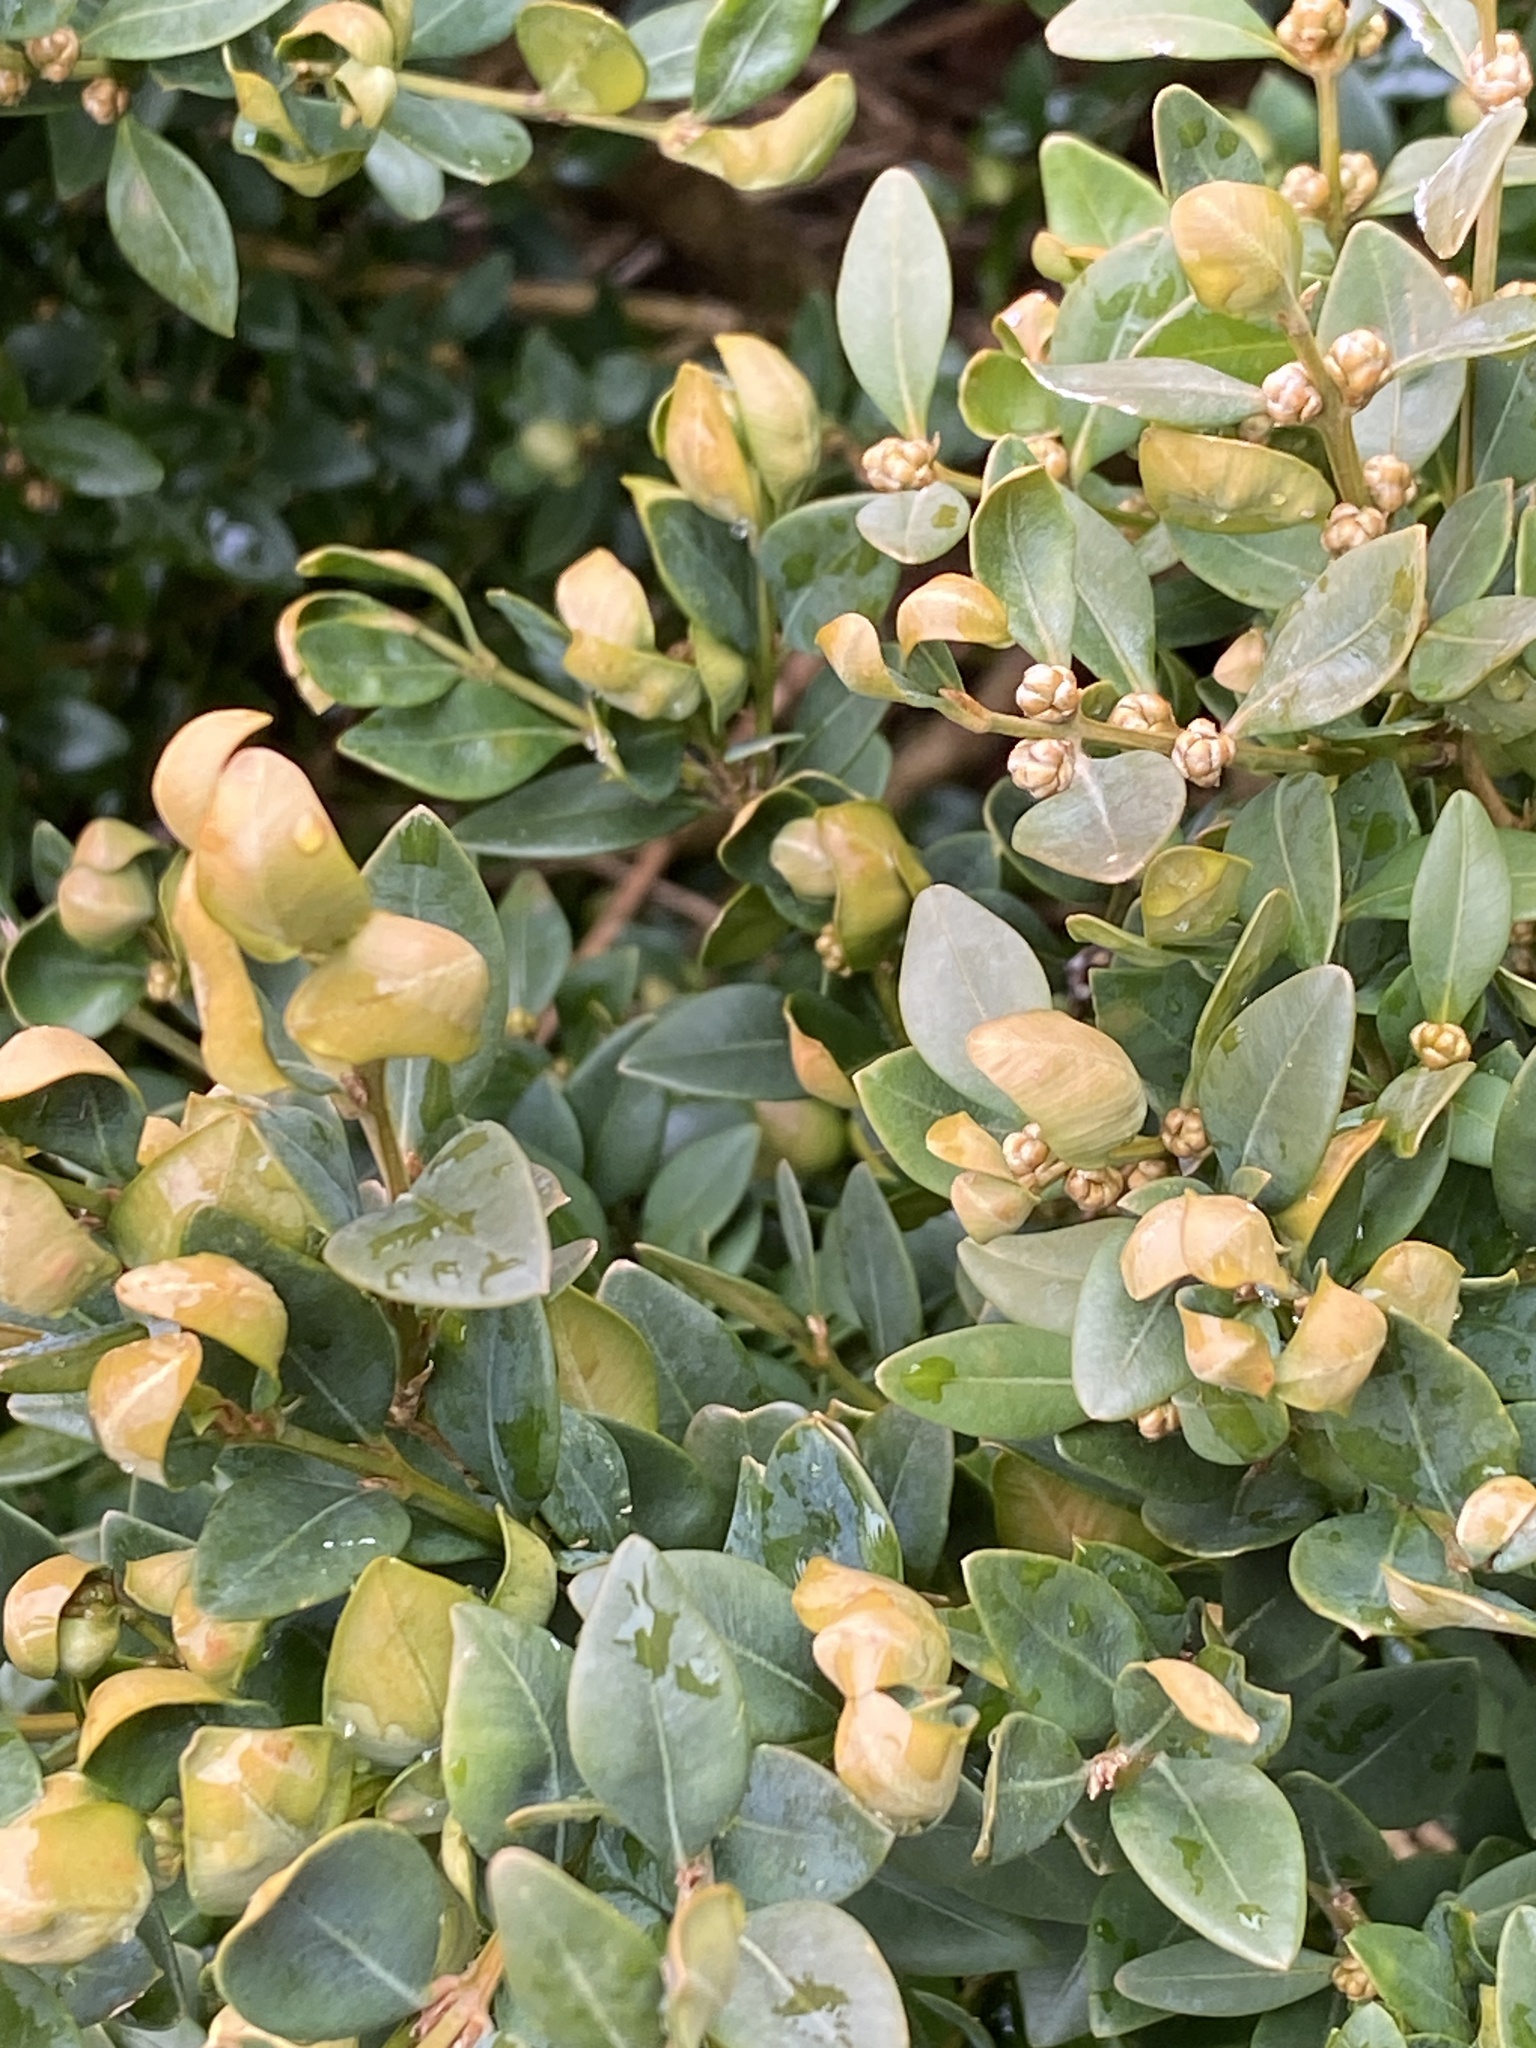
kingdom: Animalia
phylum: Arthropoda
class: Insecta
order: Hemiptera
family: Psyllidae
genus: Psylla
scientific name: Psylla buxi
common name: Boxwood psyllid
